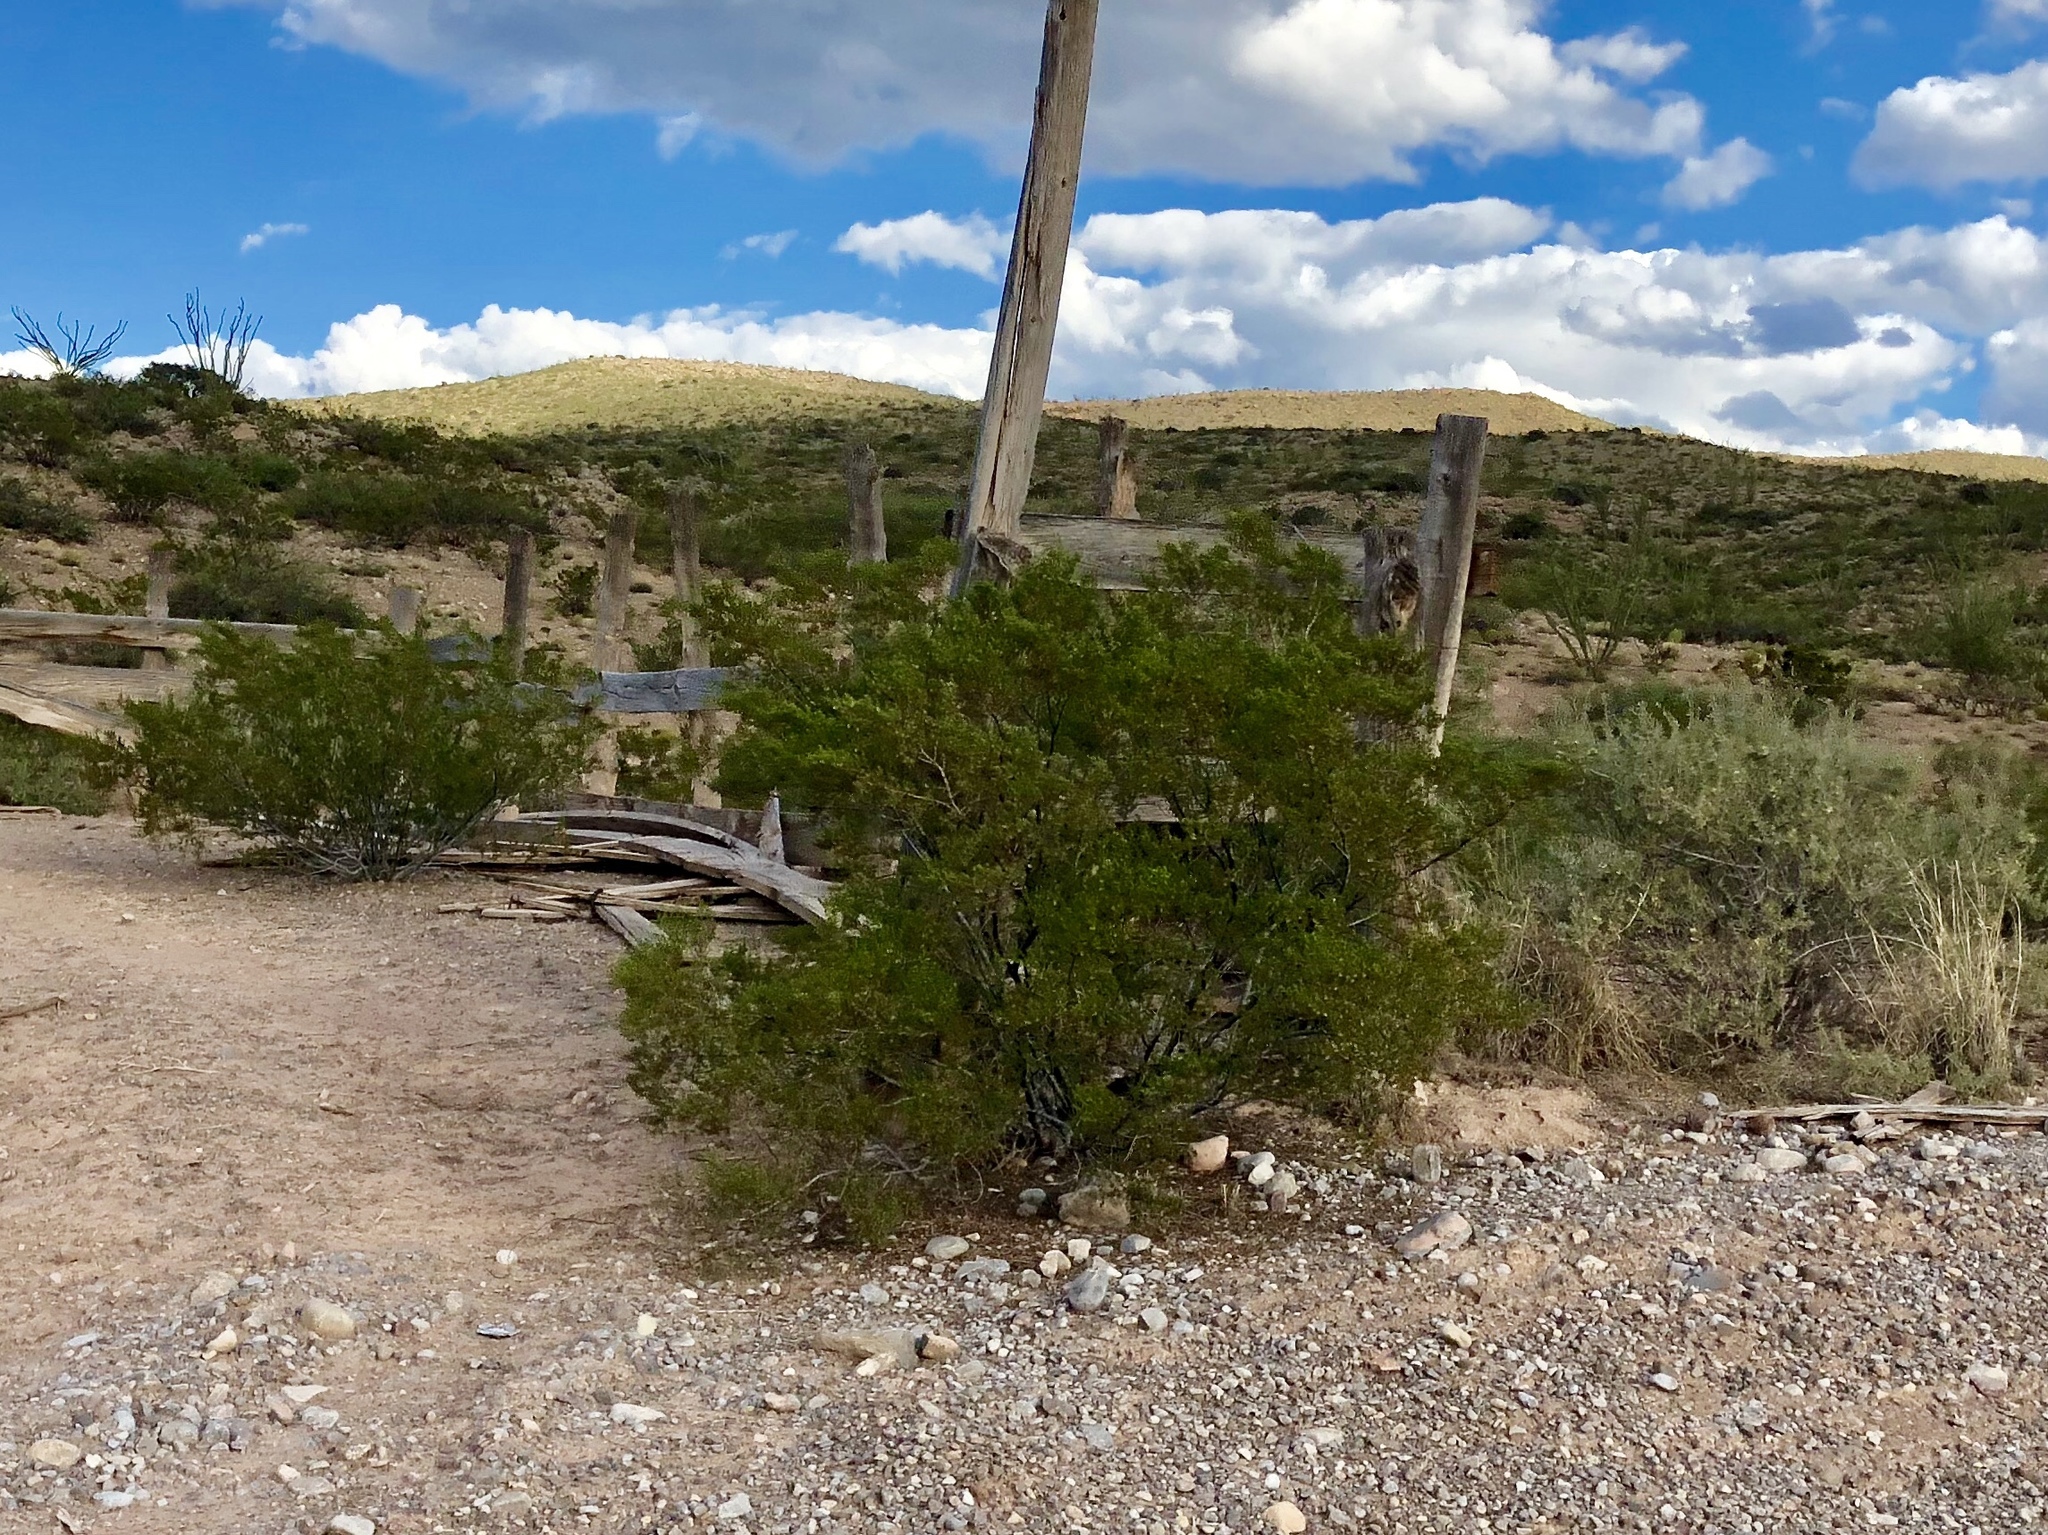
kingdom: Plantae
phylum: Tracheophyta
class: Magnoliopsida
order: Zygophyllales
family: Zygophyllaceae
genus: Larrea
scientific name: Larrea tridentata
